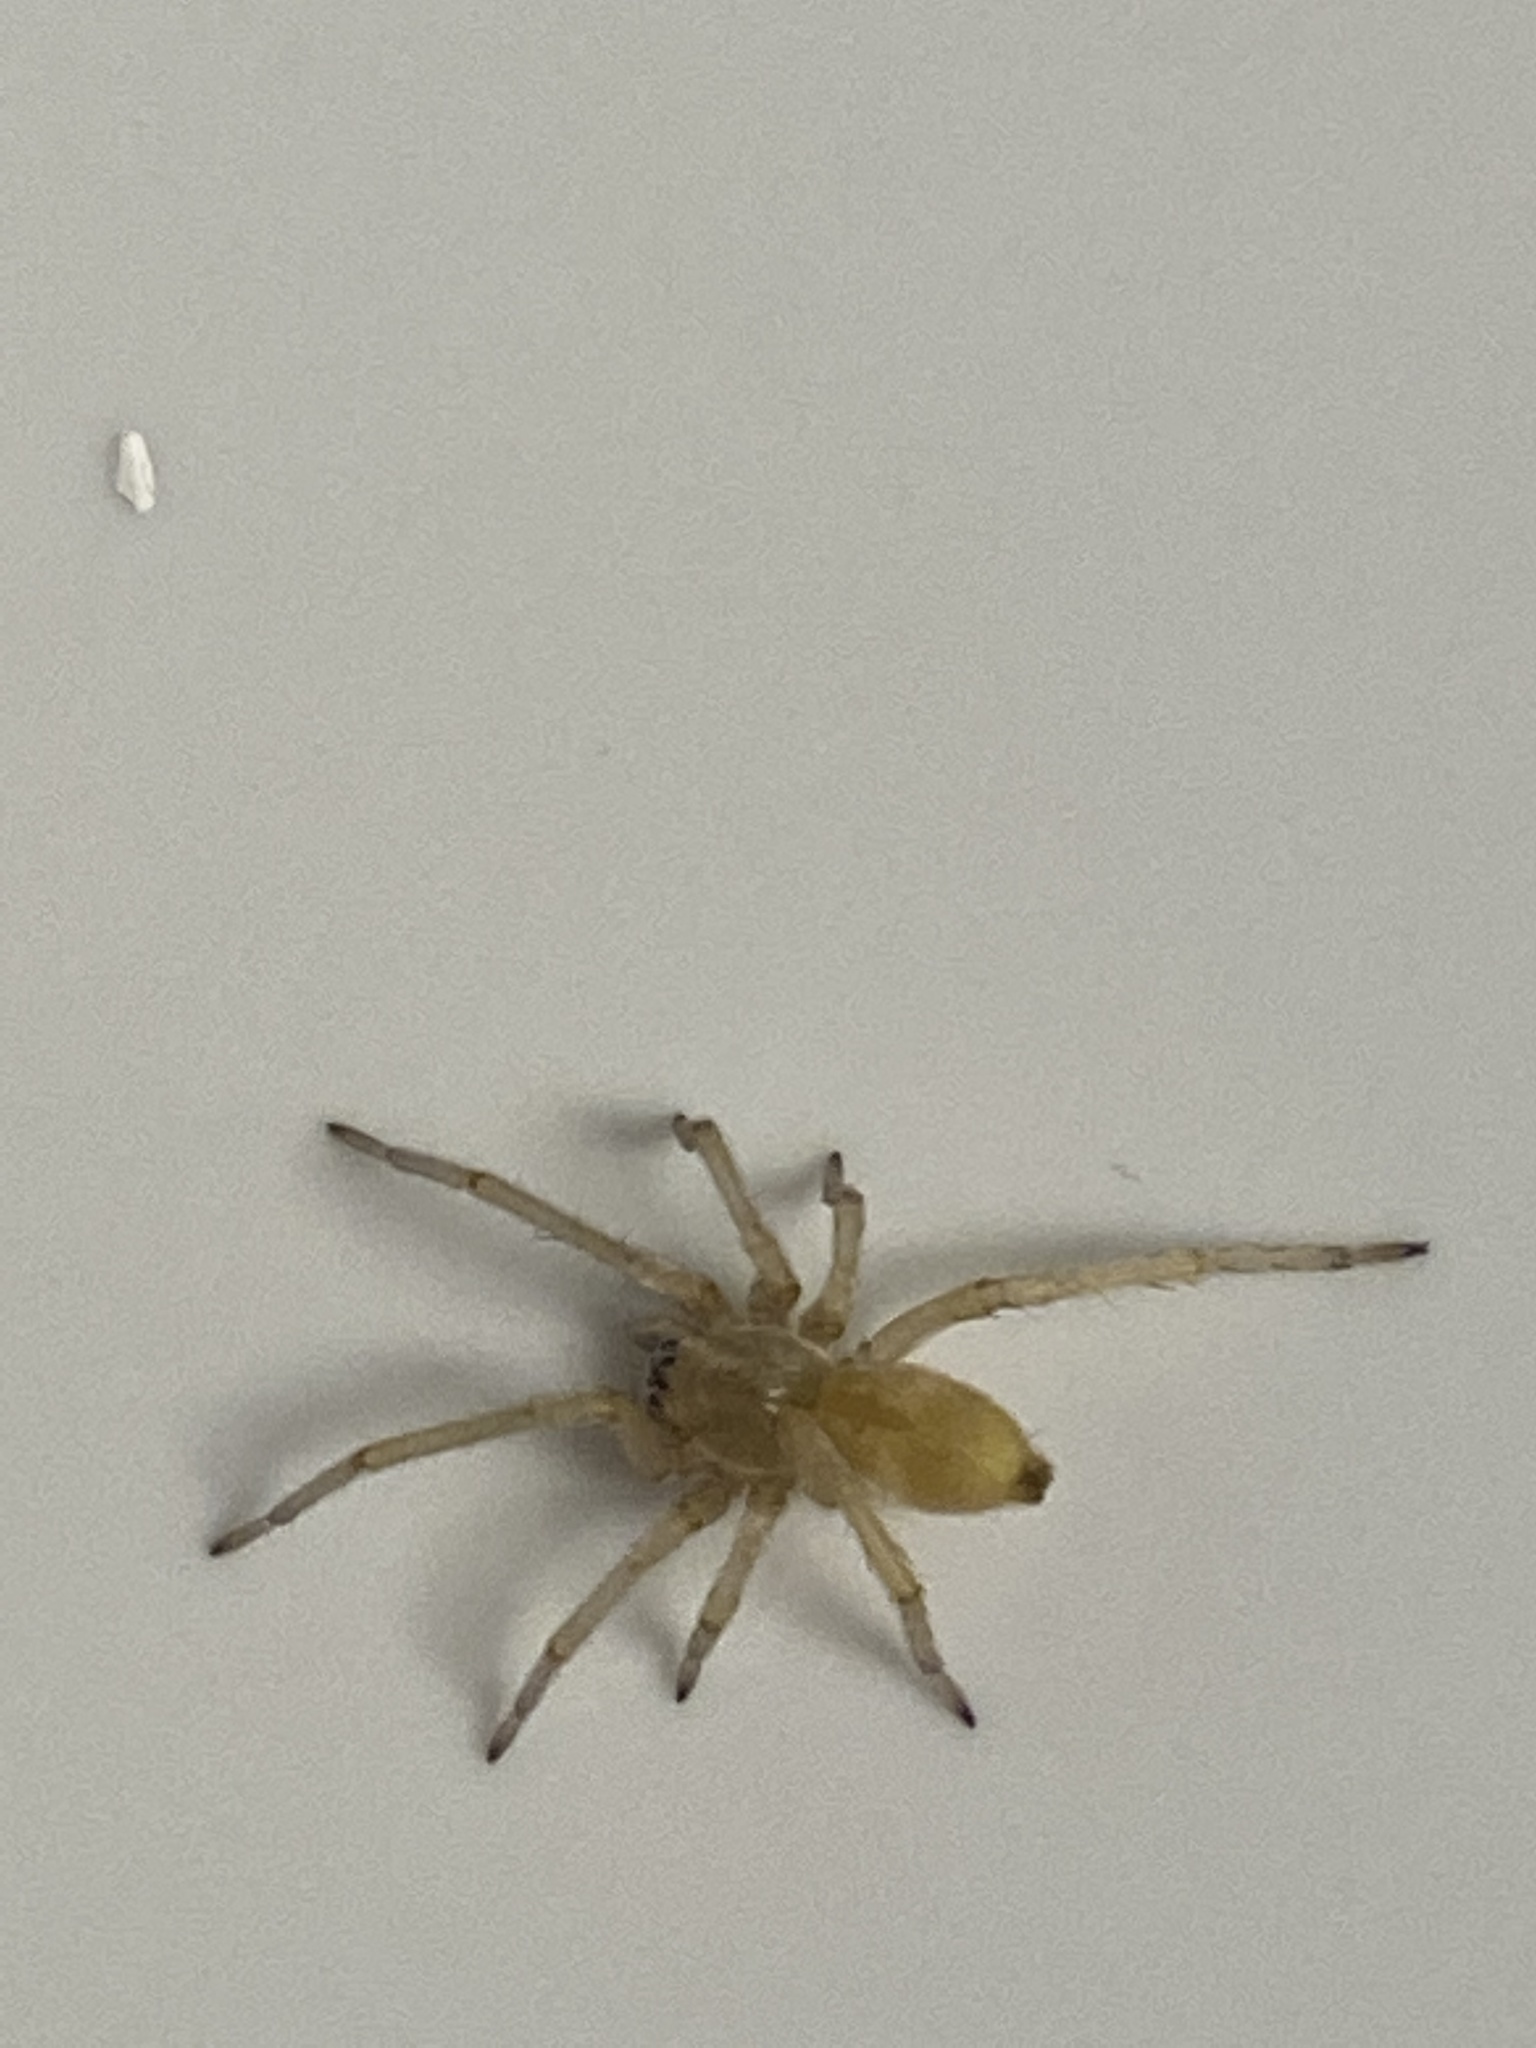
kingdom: Animalia
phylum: Arthropoda
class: Arachnida
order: Araneae
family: Cheiracanthiidae
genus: Cheiracanthium
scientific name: Cheiracanthium
